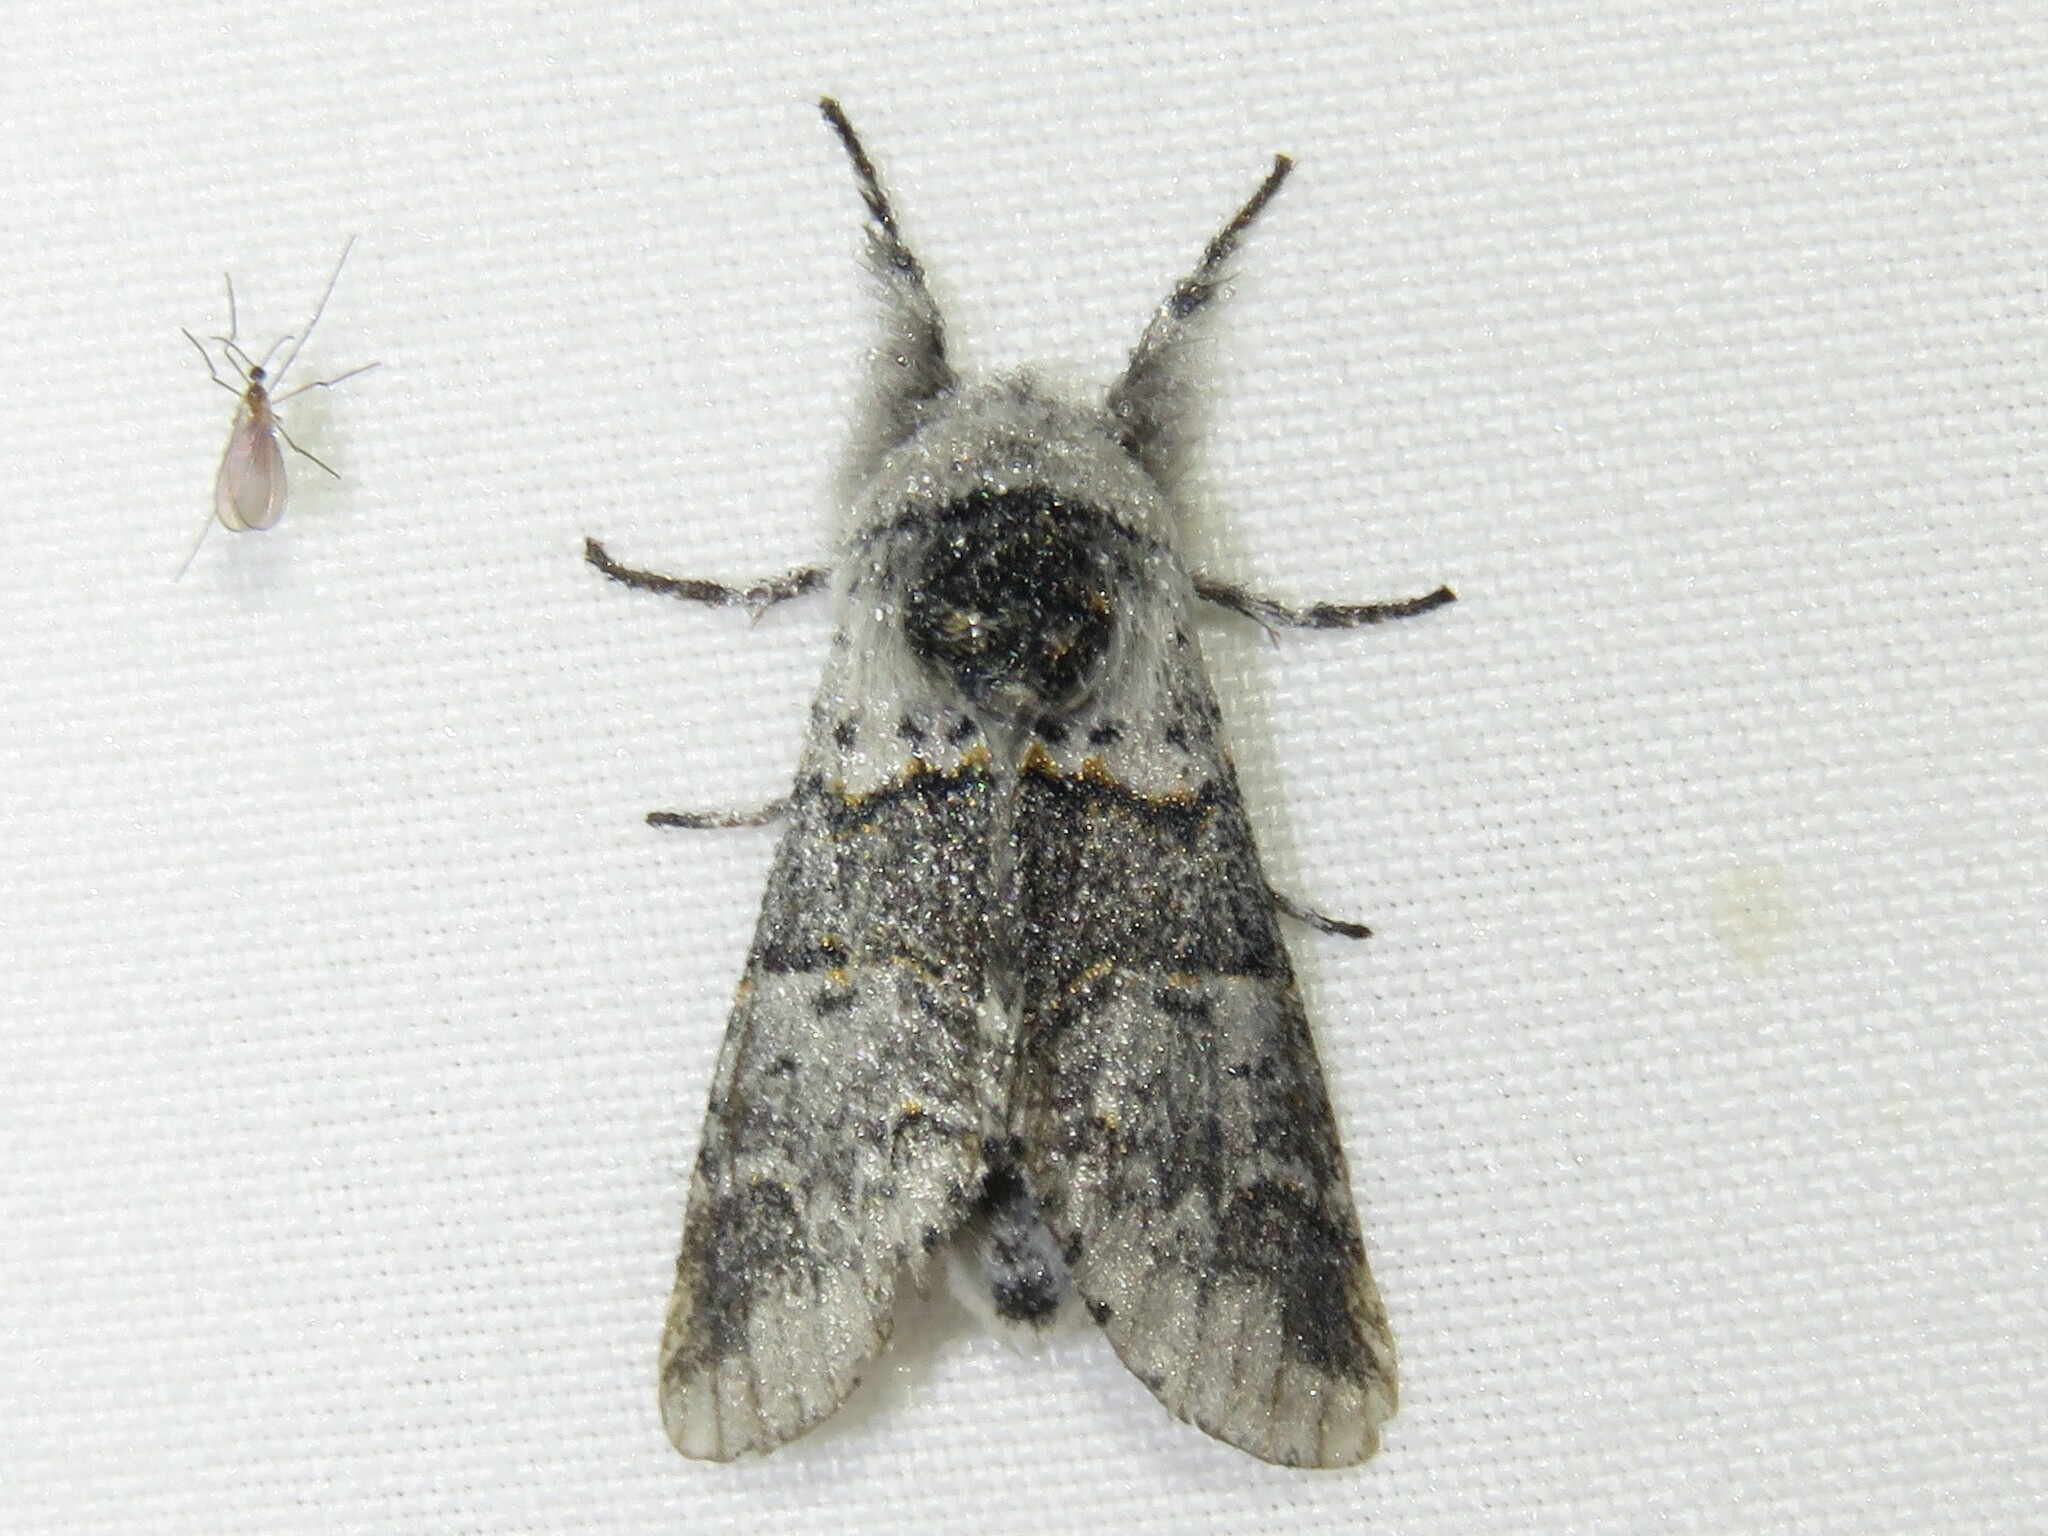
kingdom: Animalia
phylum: Arthropoda
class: Insecta
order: Lepidoptera
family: Notodontidae
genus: Furcula
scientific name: Furcula occidentalis
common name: Western furcula moth
